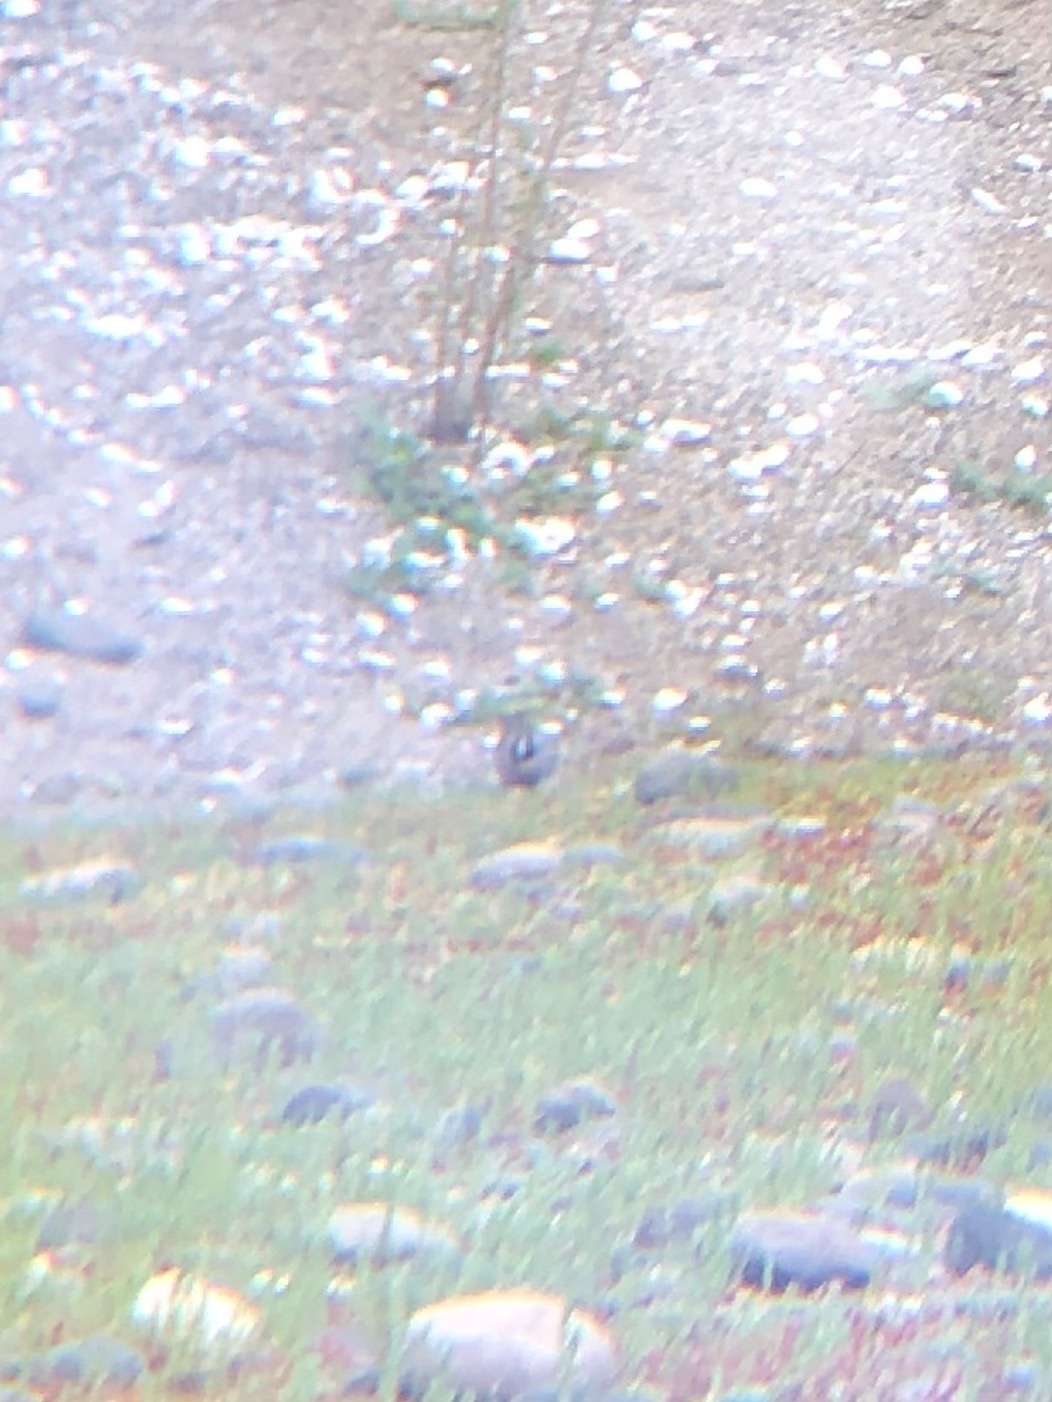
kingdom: Animalia
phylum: Chordata
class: Aves
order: Passeriformes
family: Passerellidae
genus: Zonotrichia
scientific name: Zonotrichia leucophrys
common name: White-crowned sparrow
